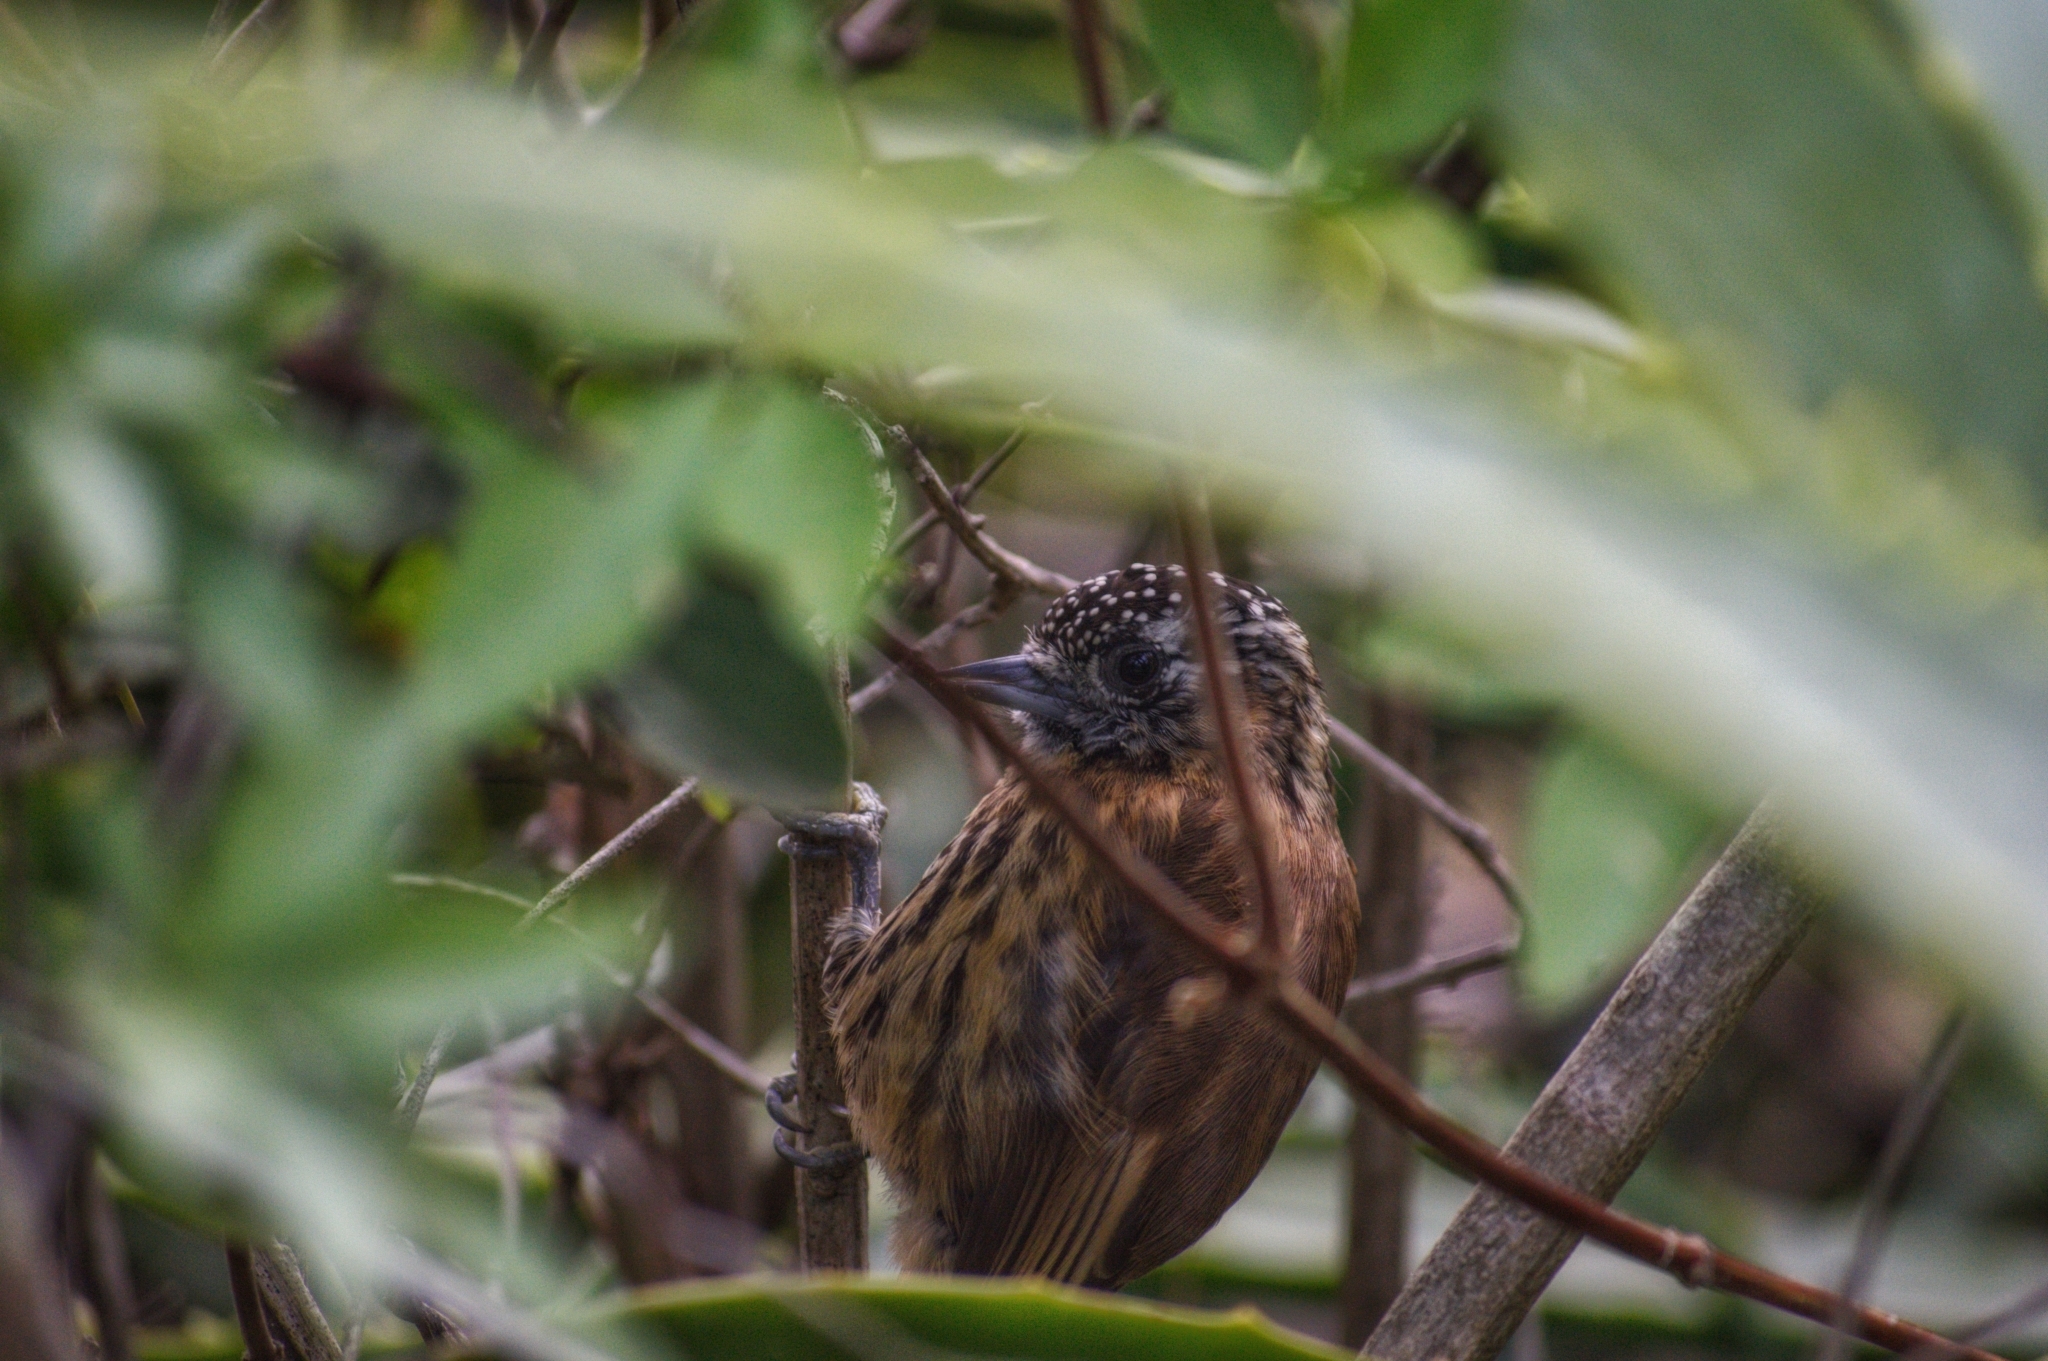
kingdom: Animalia
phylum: Chordata
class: Aves
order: Piciformes
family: Picidae
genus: Picumnus
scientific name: Picumnus nebulosus
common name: Mottled piculet
